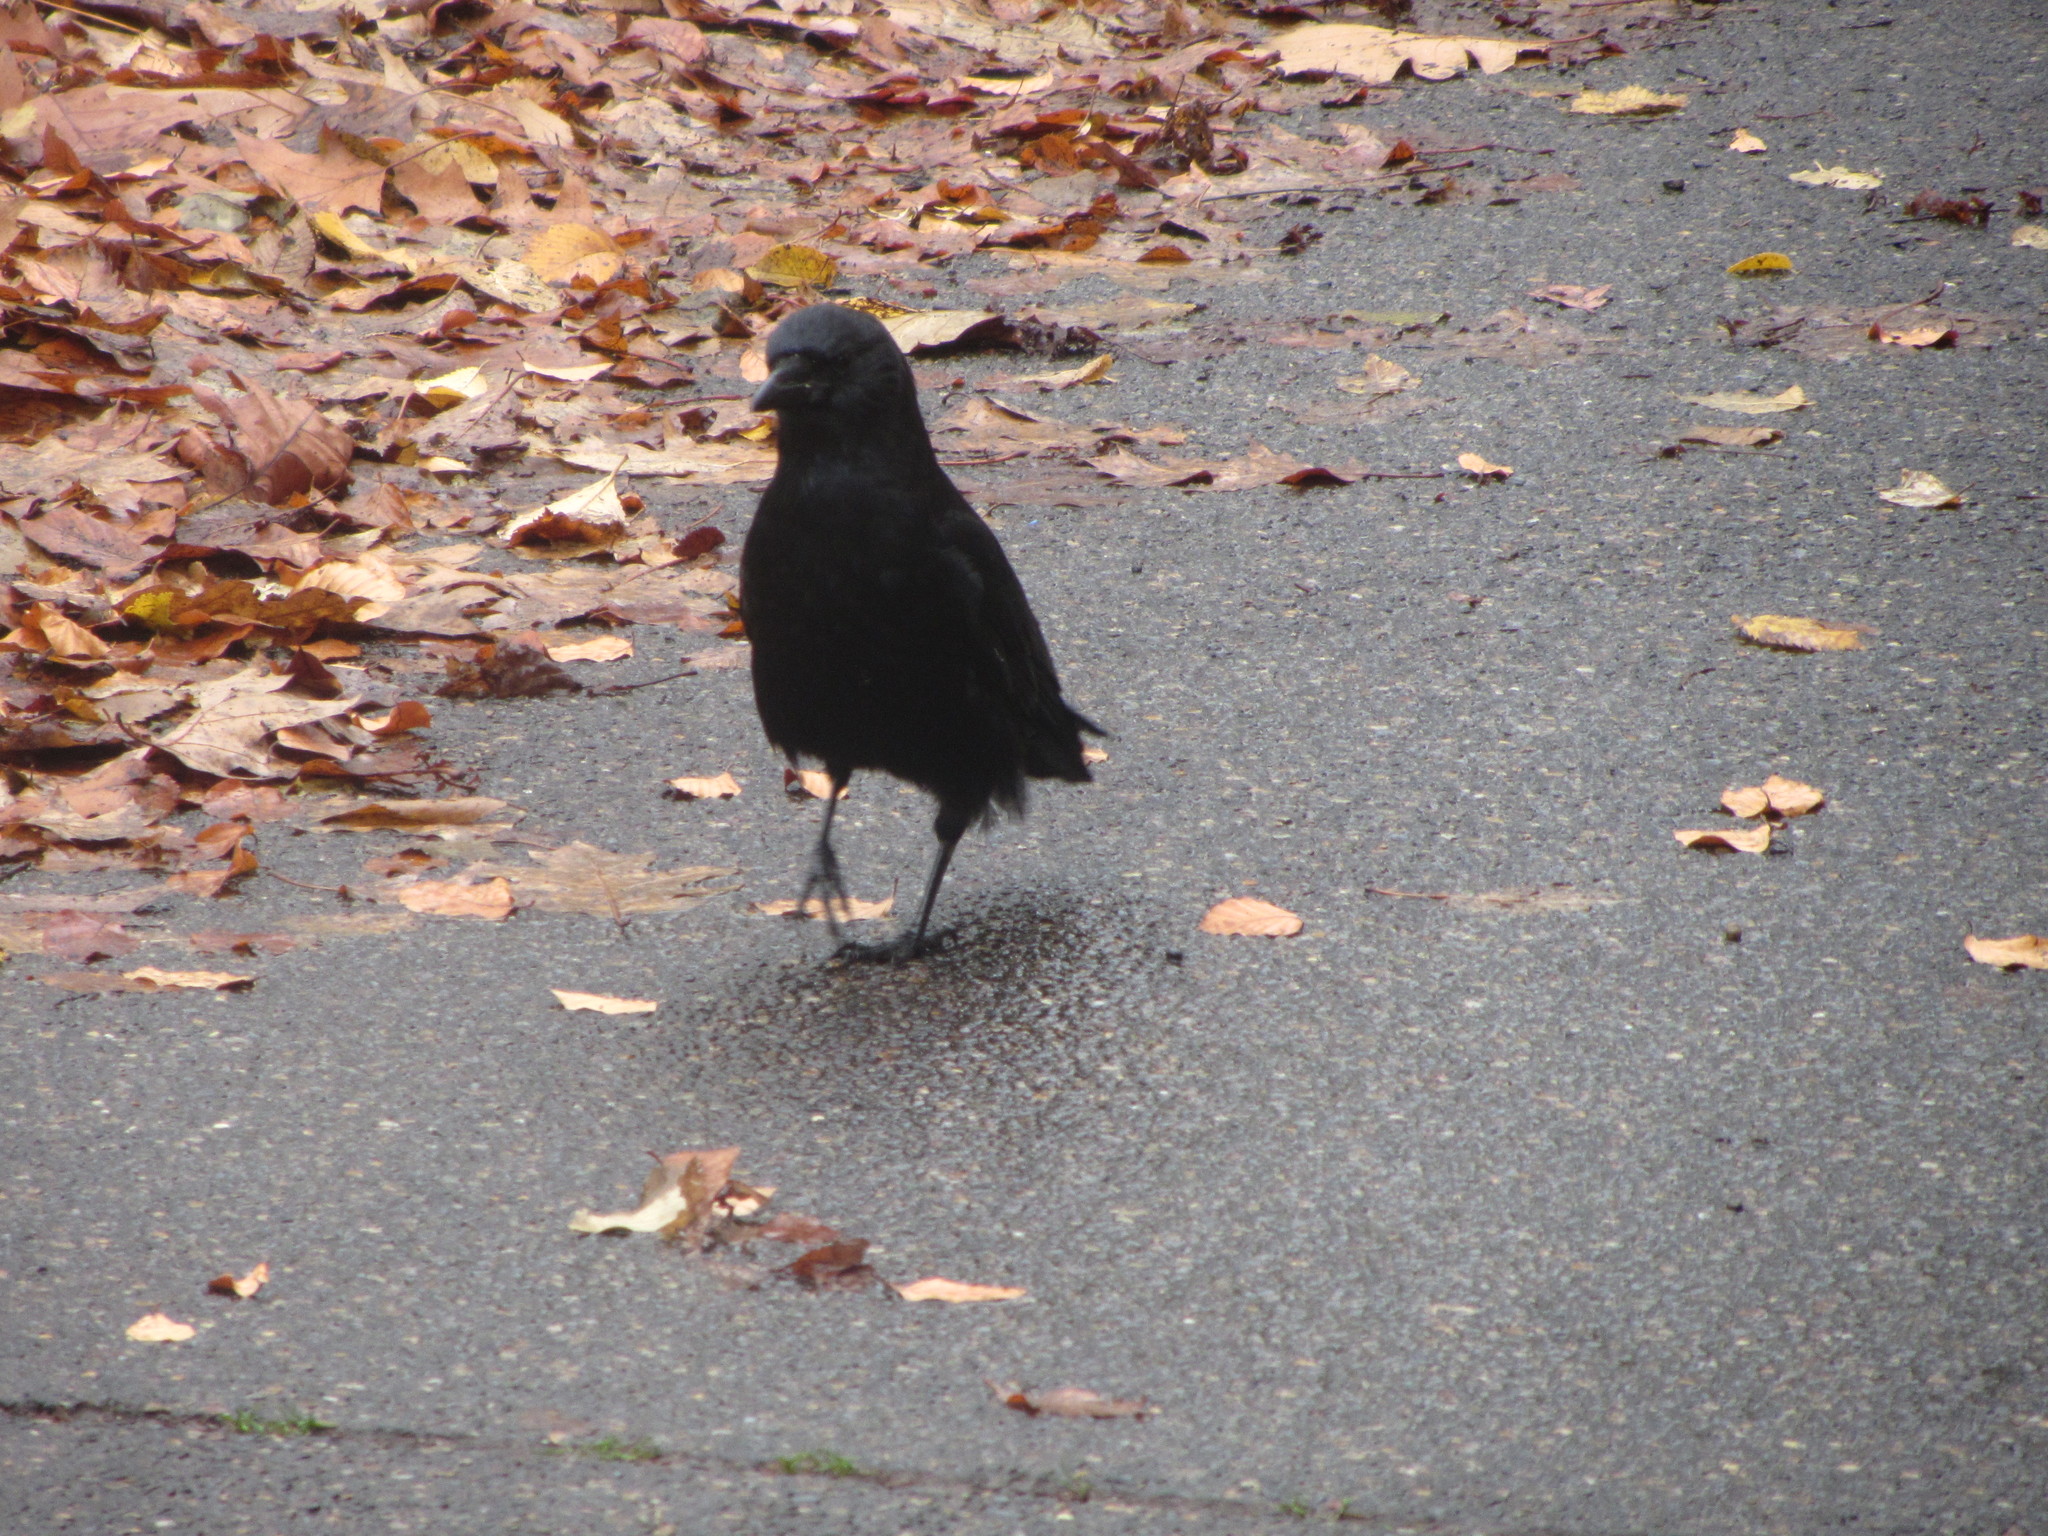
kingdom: Animalia
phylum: Chordata
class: Aves
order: Passeriformes
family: Corvidae
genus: Corvus
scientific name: Corvus brachyrhynchos
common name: American crow
